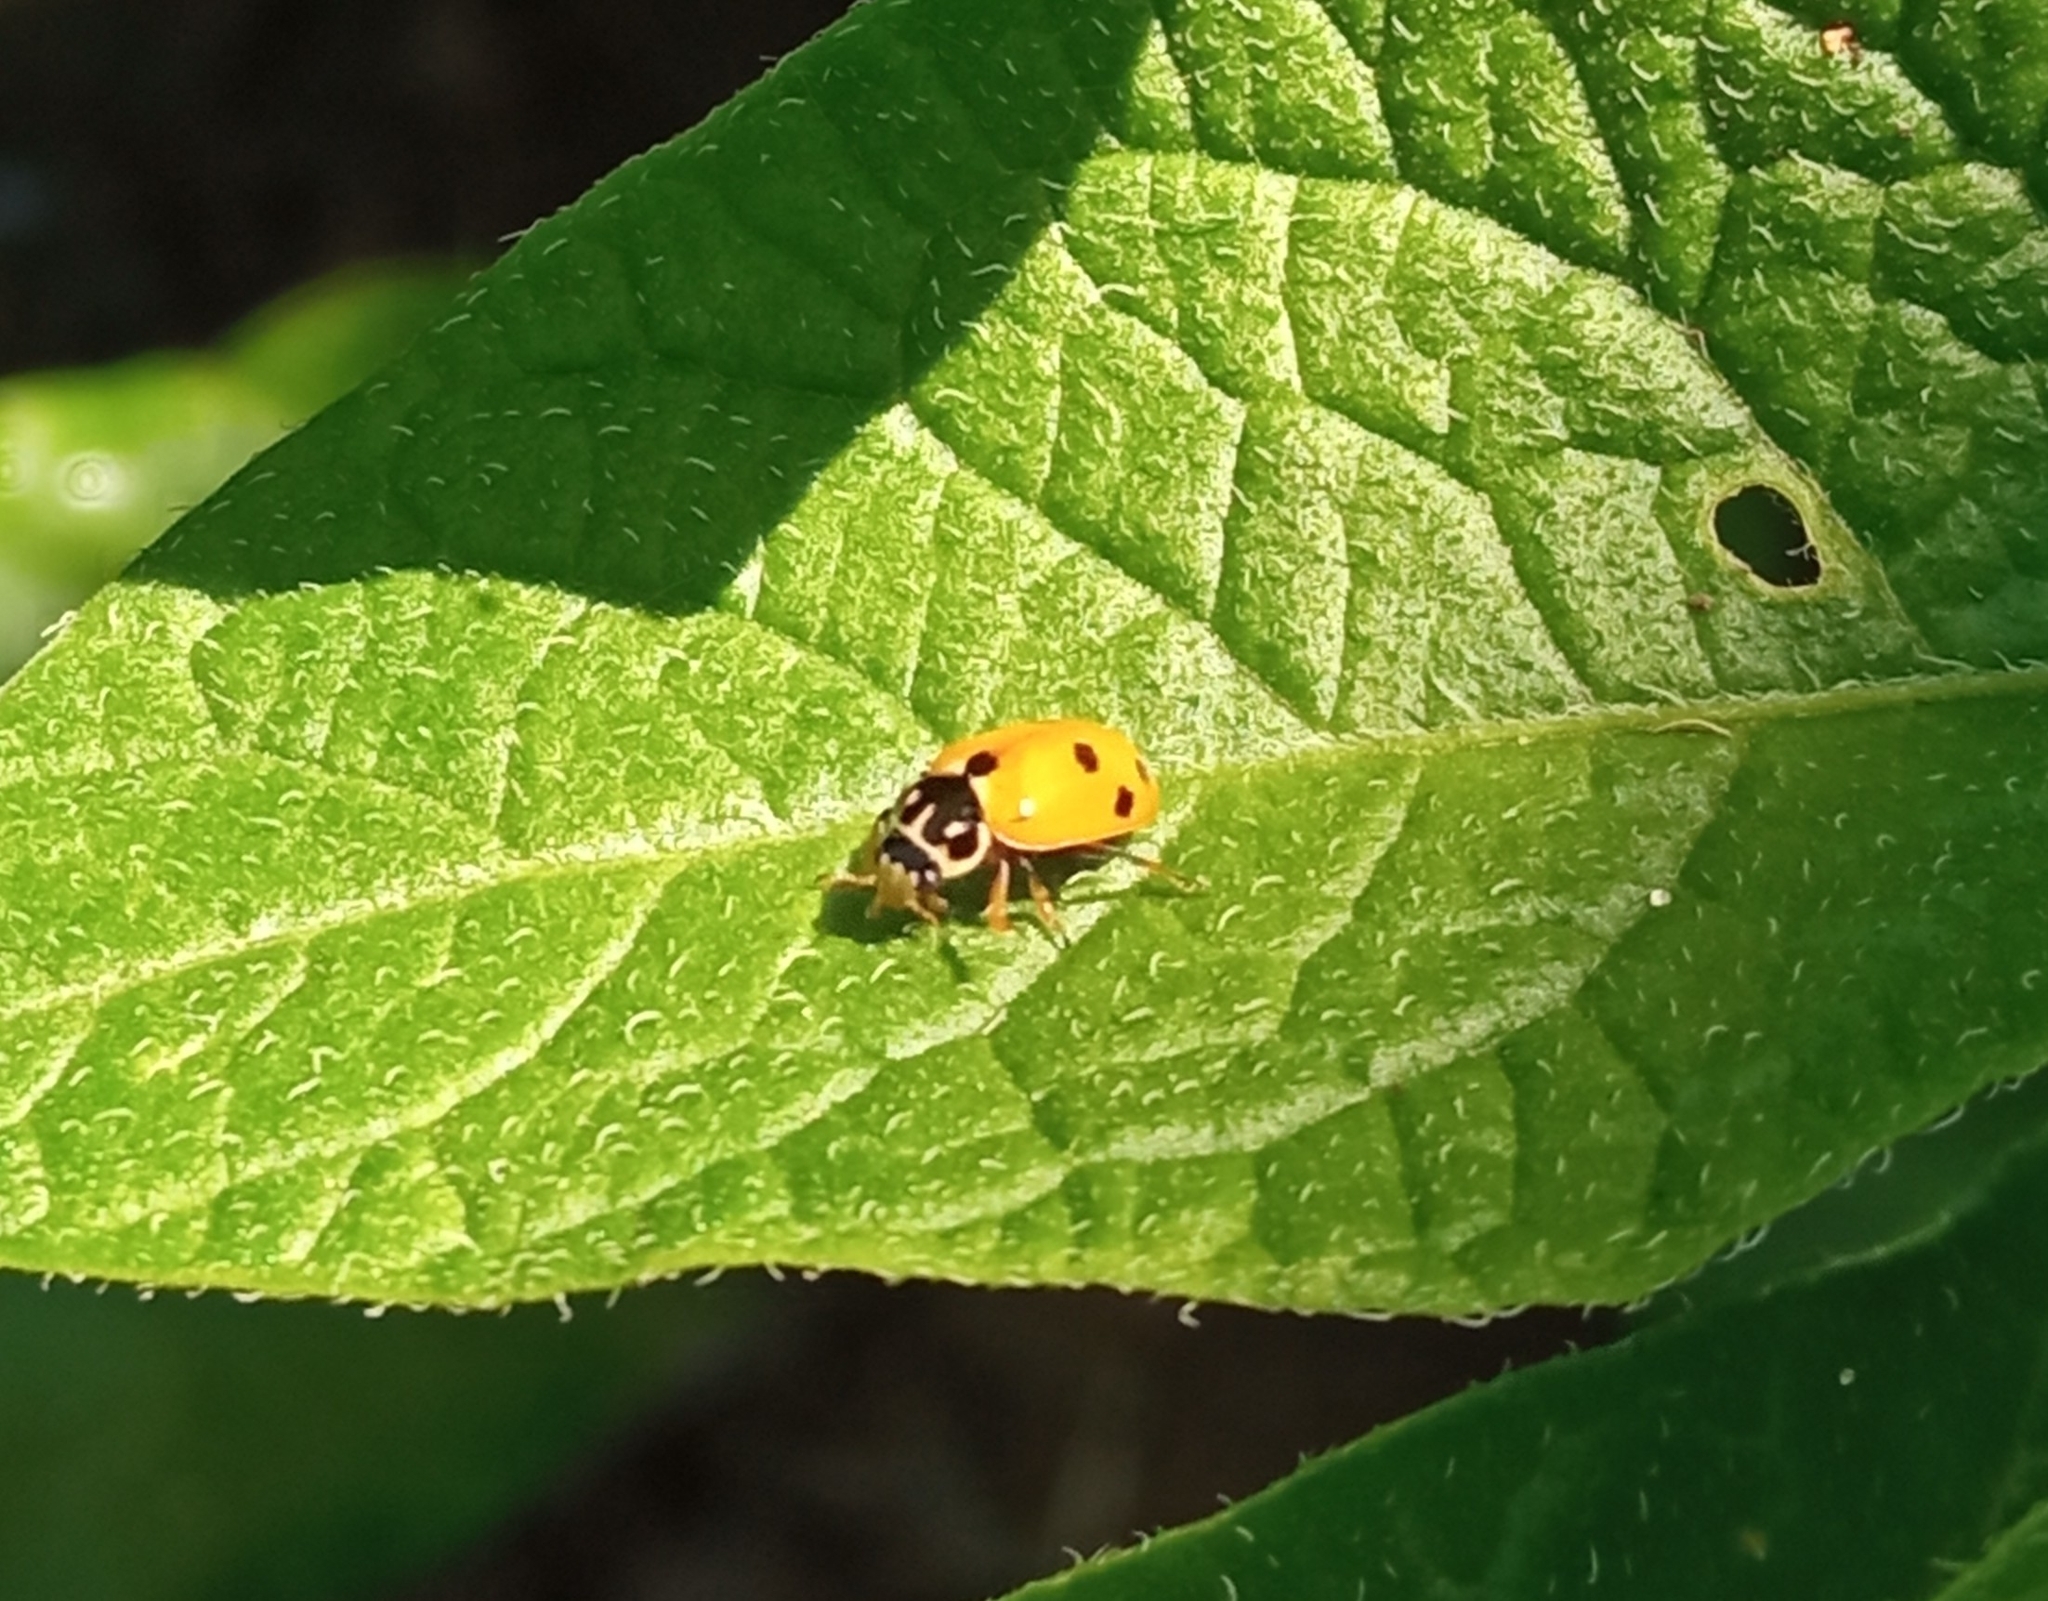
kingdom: Animalia
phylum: Arthropoda
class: Insecta
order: Coleoptera
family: Coccinellidae
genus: Hippodamia
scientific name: Hippodamia variegata
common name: Ladybird beetle
